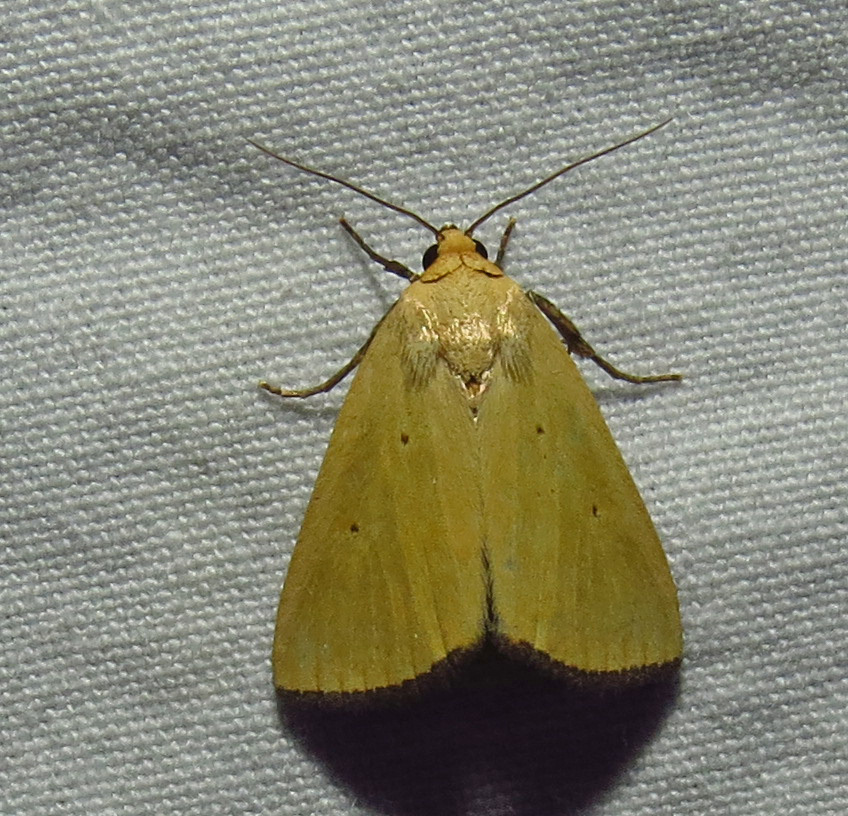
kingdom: Animalia
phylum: Arthropoda
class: Insecta
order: Lepidoptera
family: Noctuidae
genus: Marimatha
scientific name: Marimatha nigrofimbria
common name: Black-bordered lemon moth
